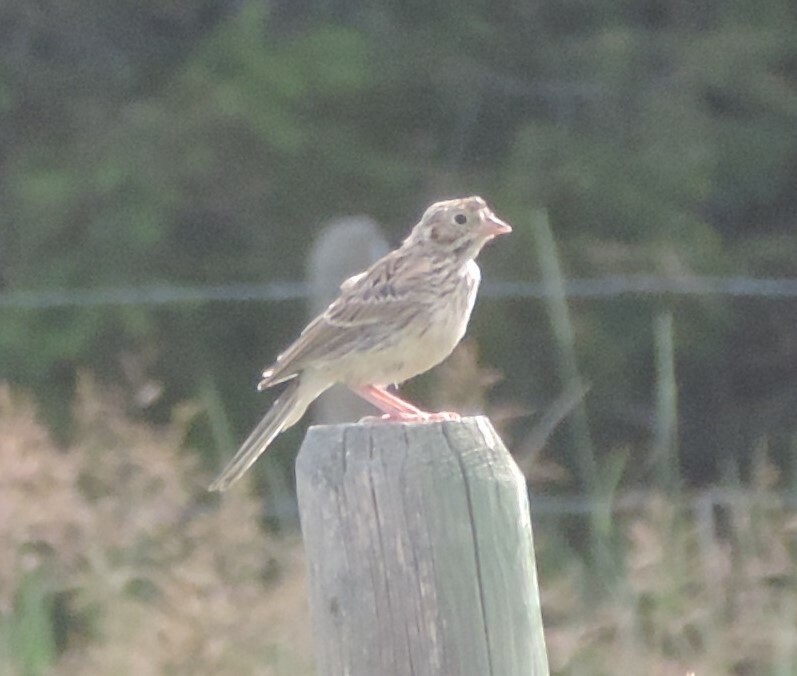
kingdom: Animalia
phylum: Chordata
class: Aves
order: Passeriformes
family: Passerellidae
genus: Pooecetes
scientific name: Pooecetes gramineus
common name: Vesper sparrow
